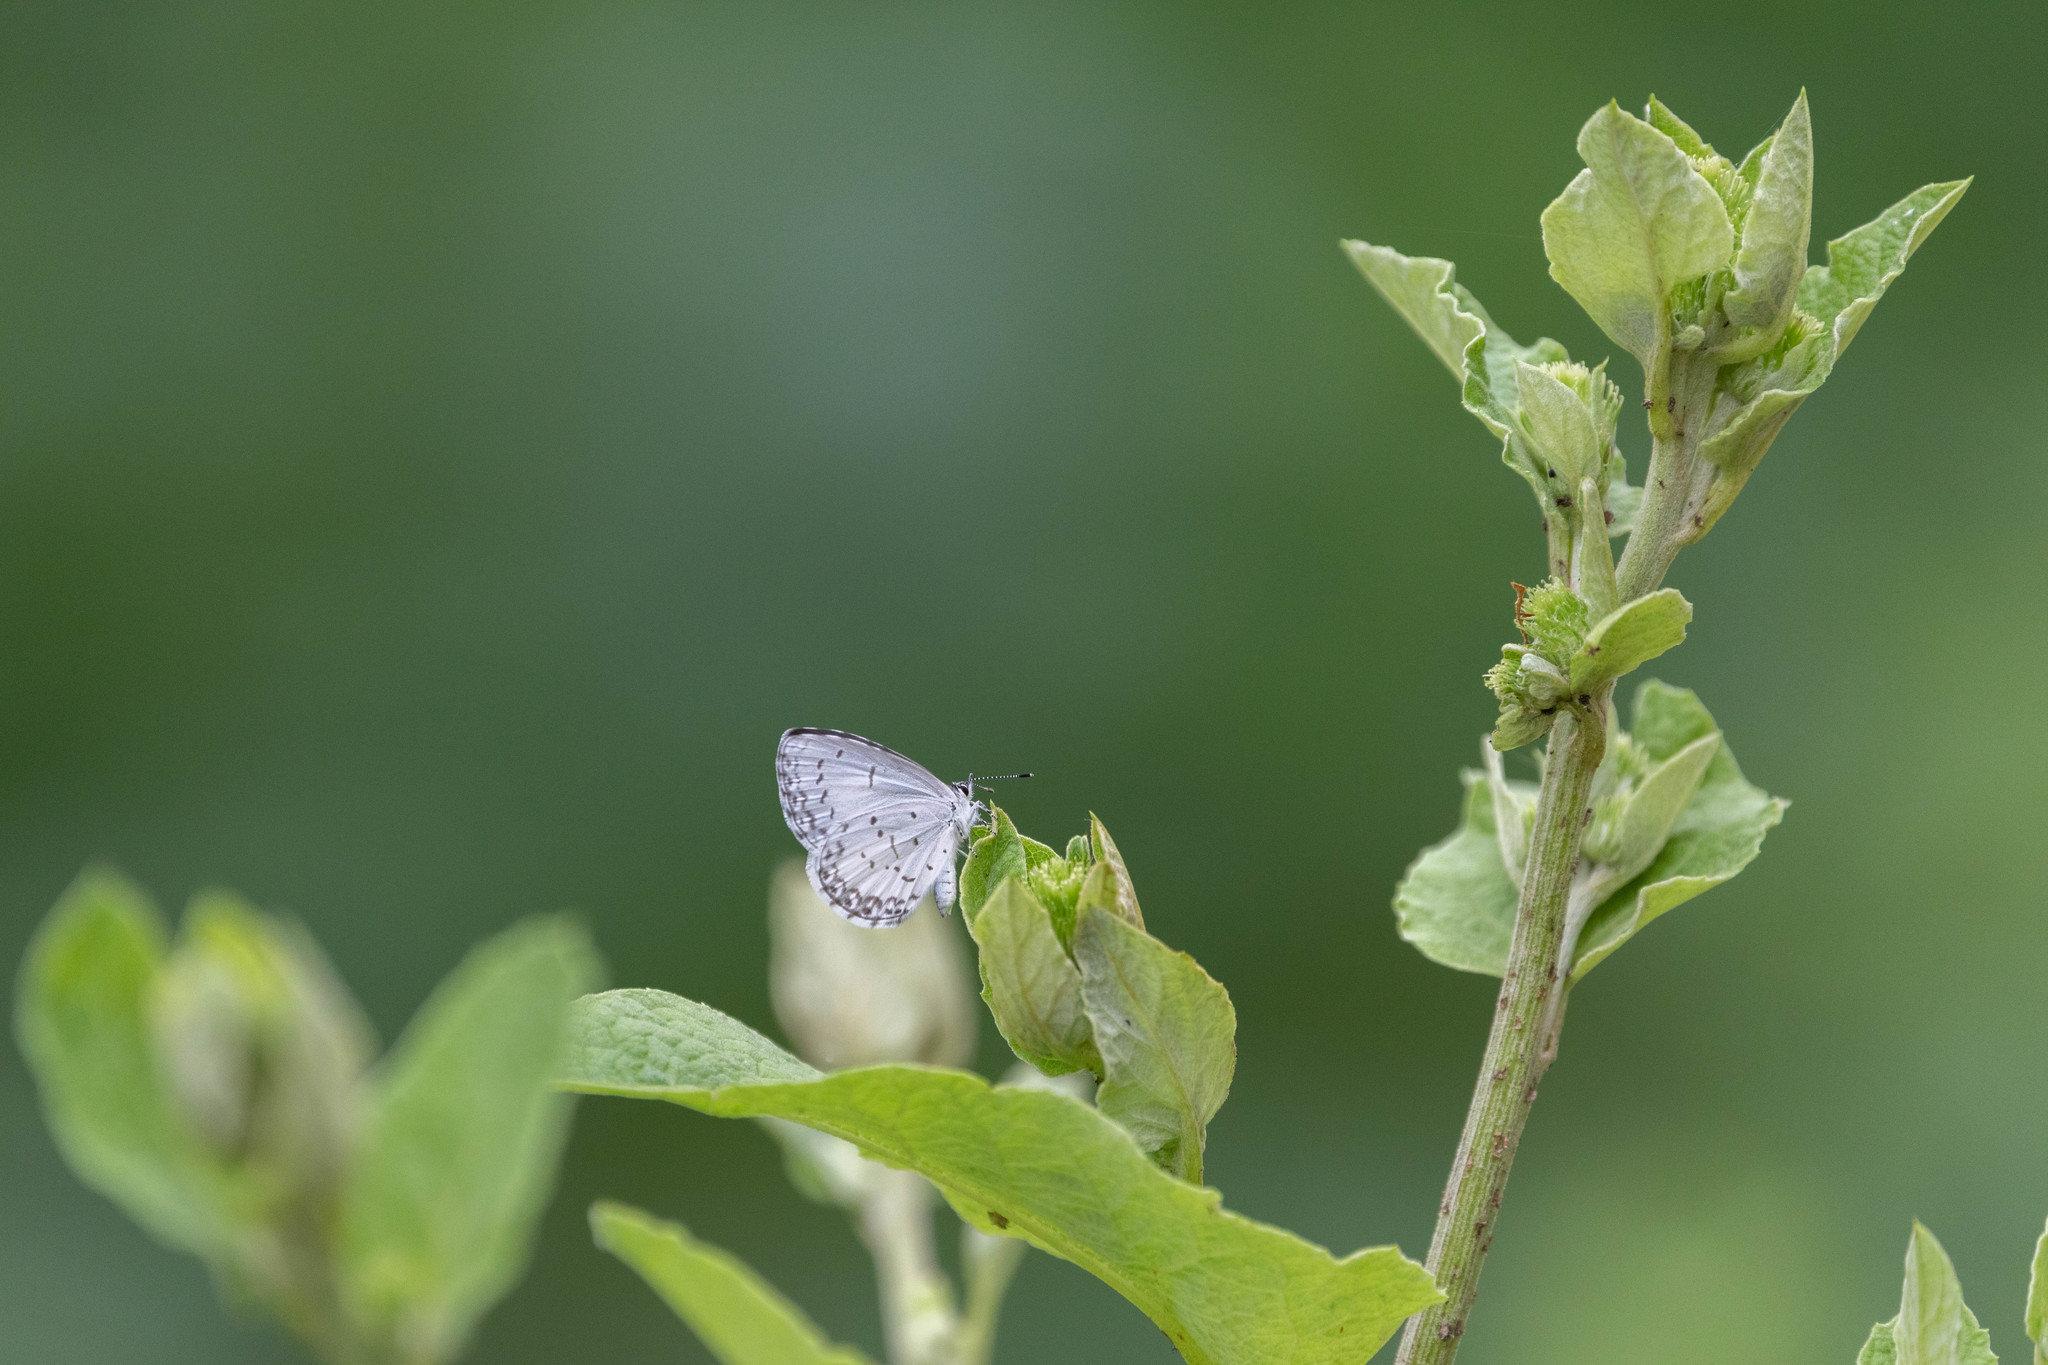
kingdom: Animalia
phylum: Arthropoda
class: Insecta
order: Lepidoptera
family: Lycaenidae
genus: Celastrina
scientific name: Celastrina lucia
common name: Lucia azure
